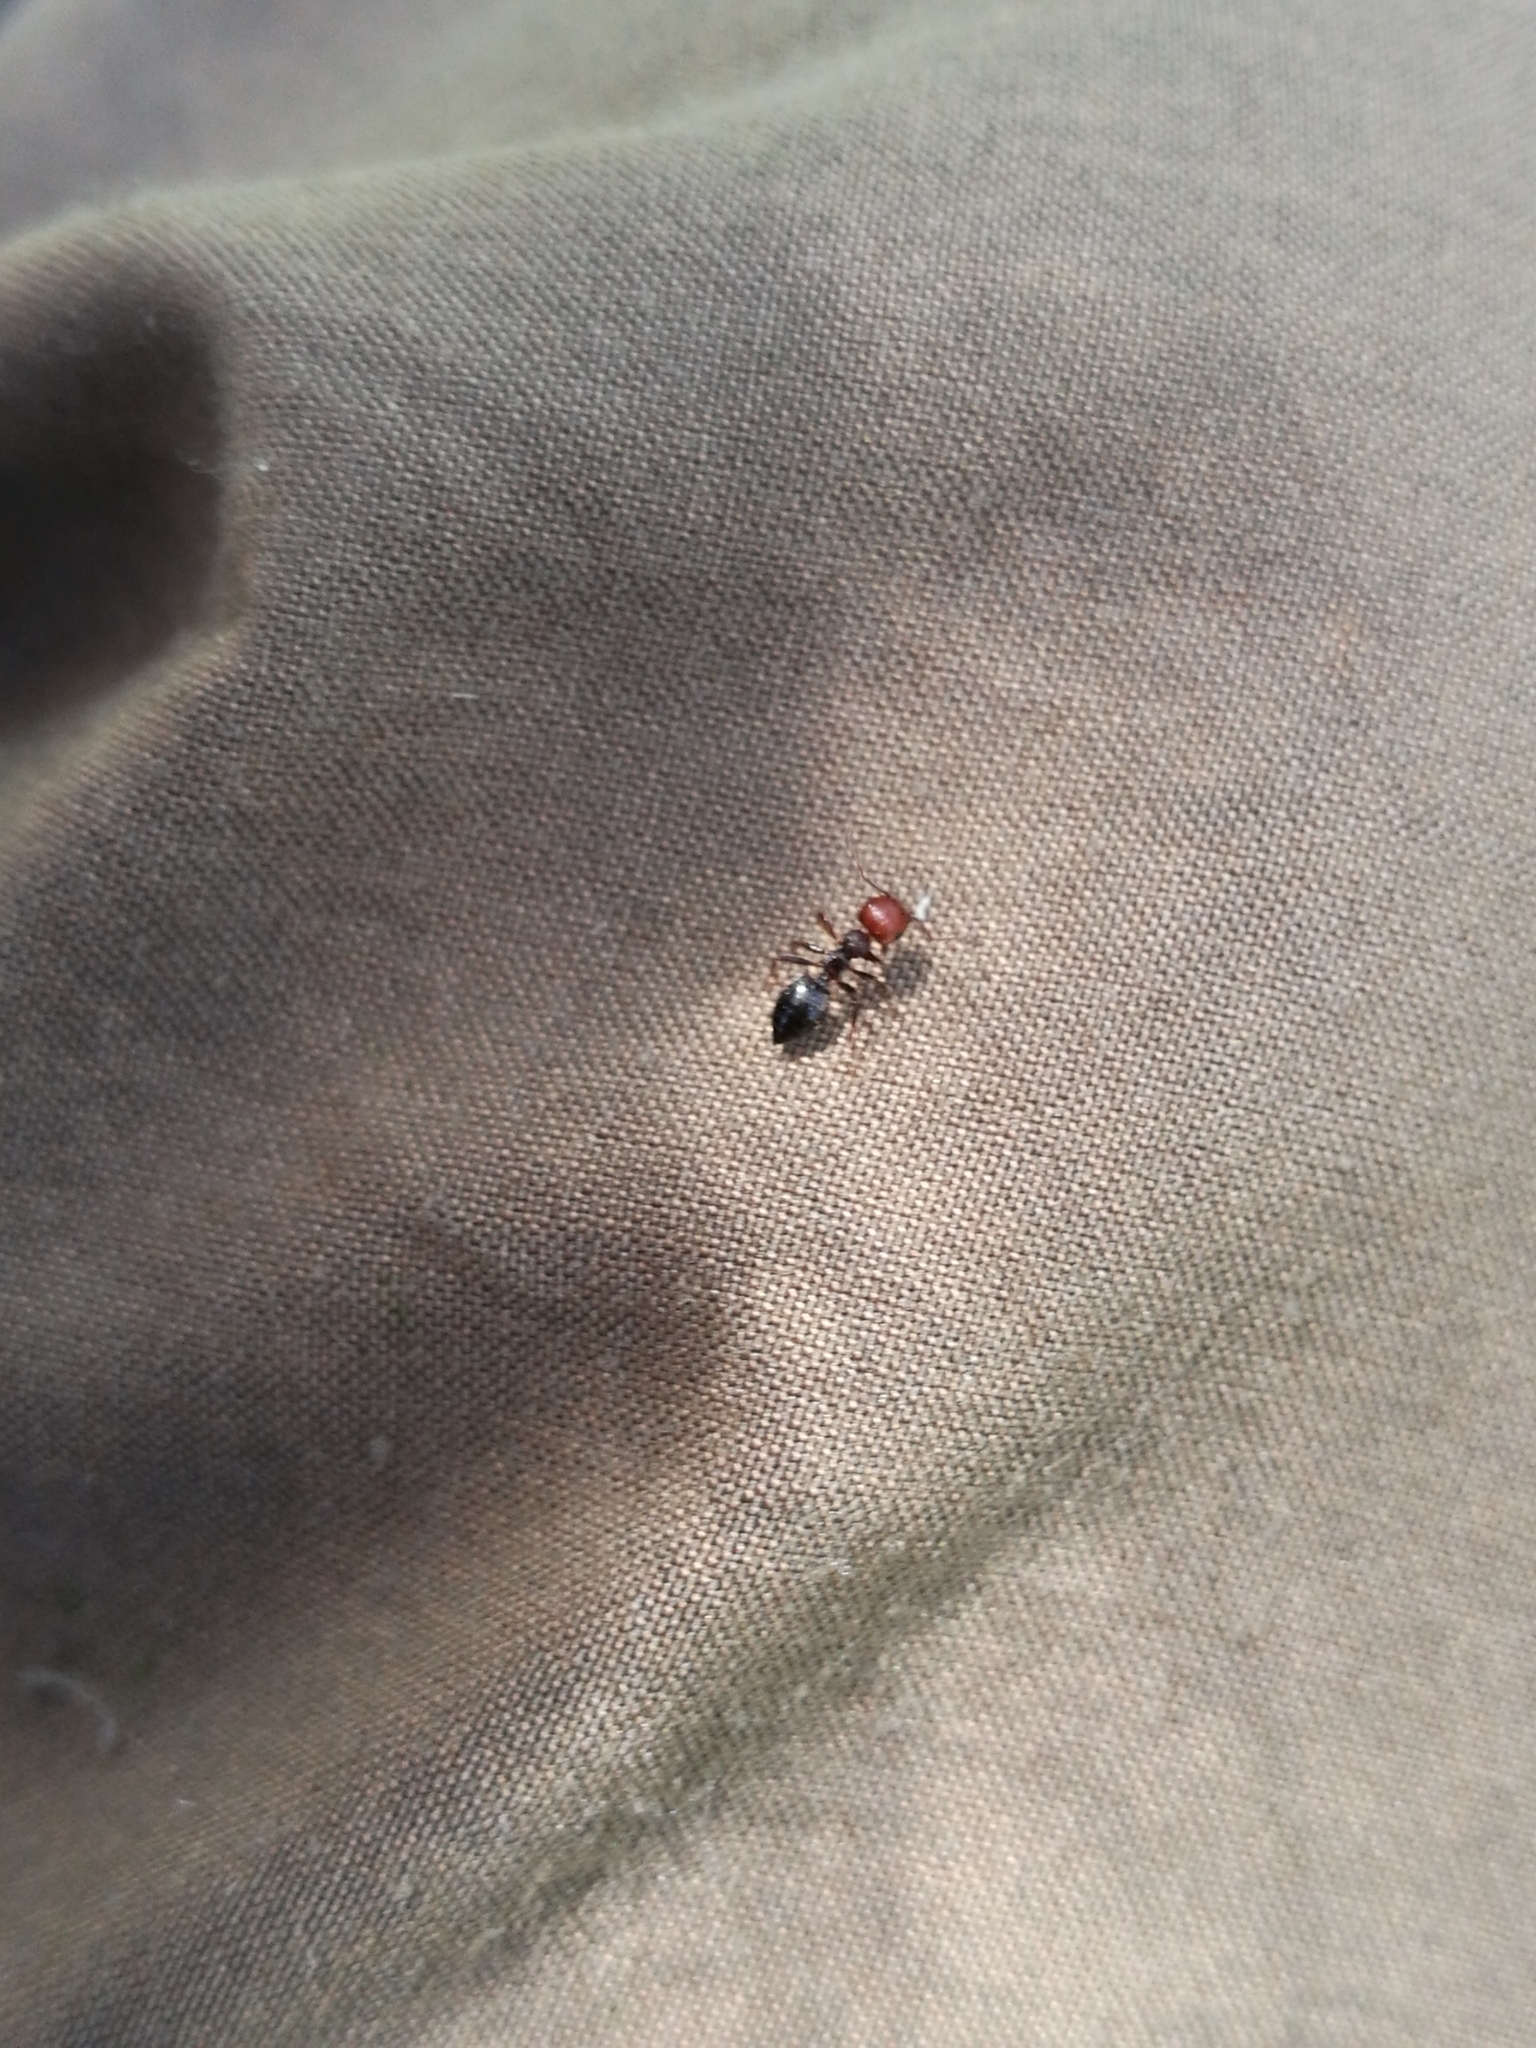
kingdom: Animalia
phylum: Arthropoda
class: Insecta
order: Hymenoptera
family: Formicidae
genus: Crematogaster
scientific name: Crematogaster scutellaris
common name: Fourmi du liège
